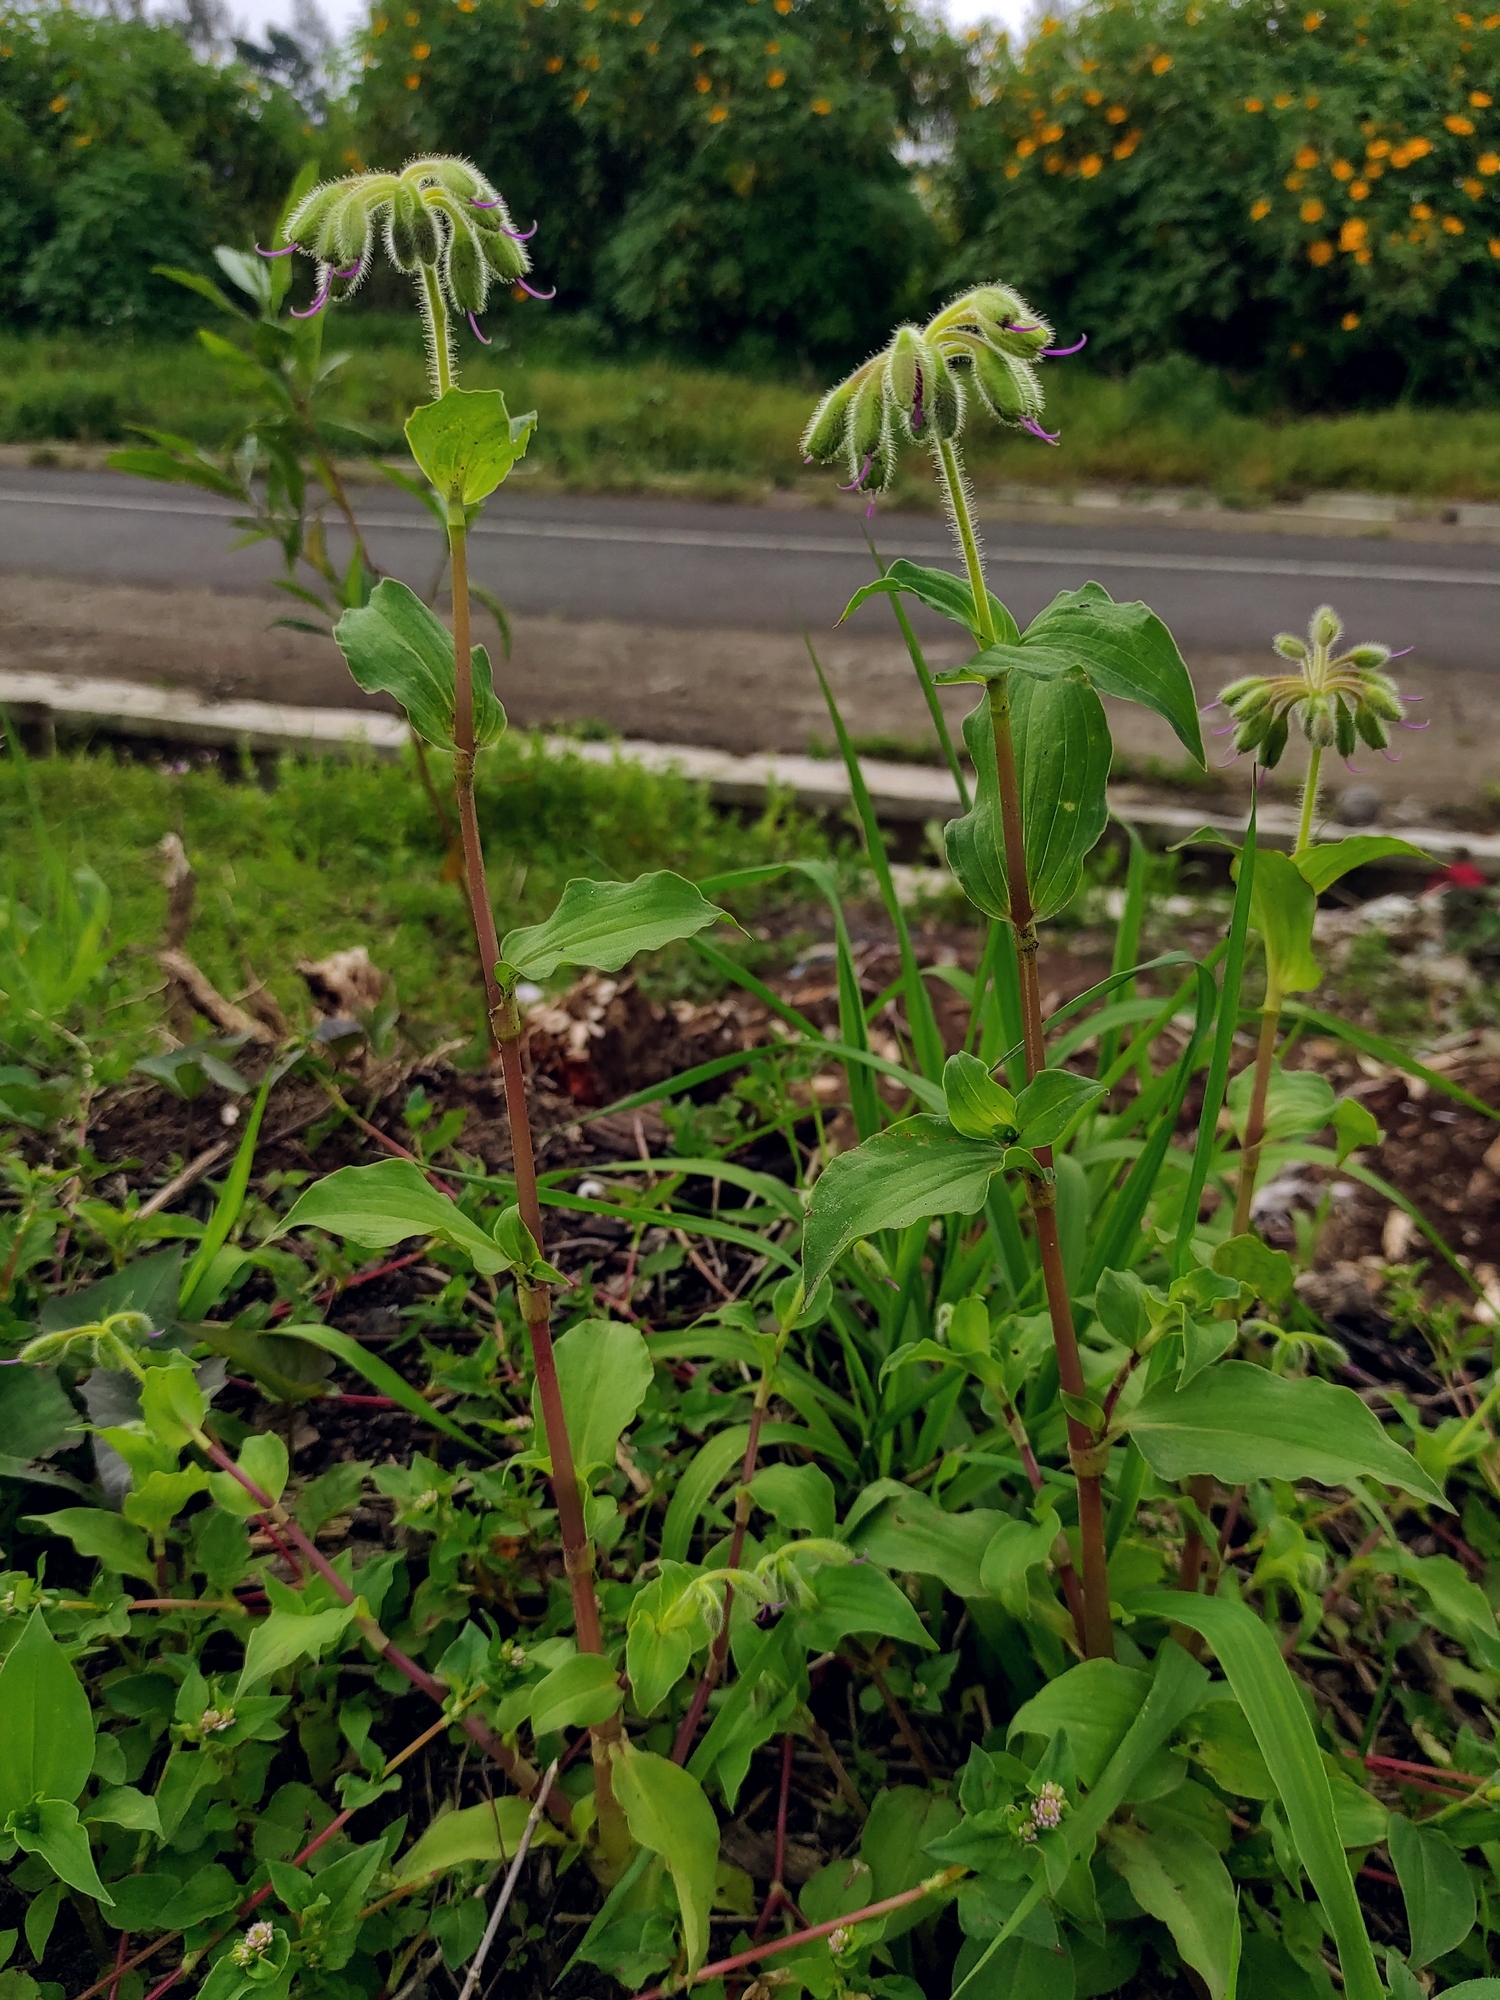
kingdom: Plantae
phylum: Tracheophyta
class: Liliopsida
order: Commelinales
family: Commelinaceae
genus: Tinantia
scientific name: Tinantia erecta
